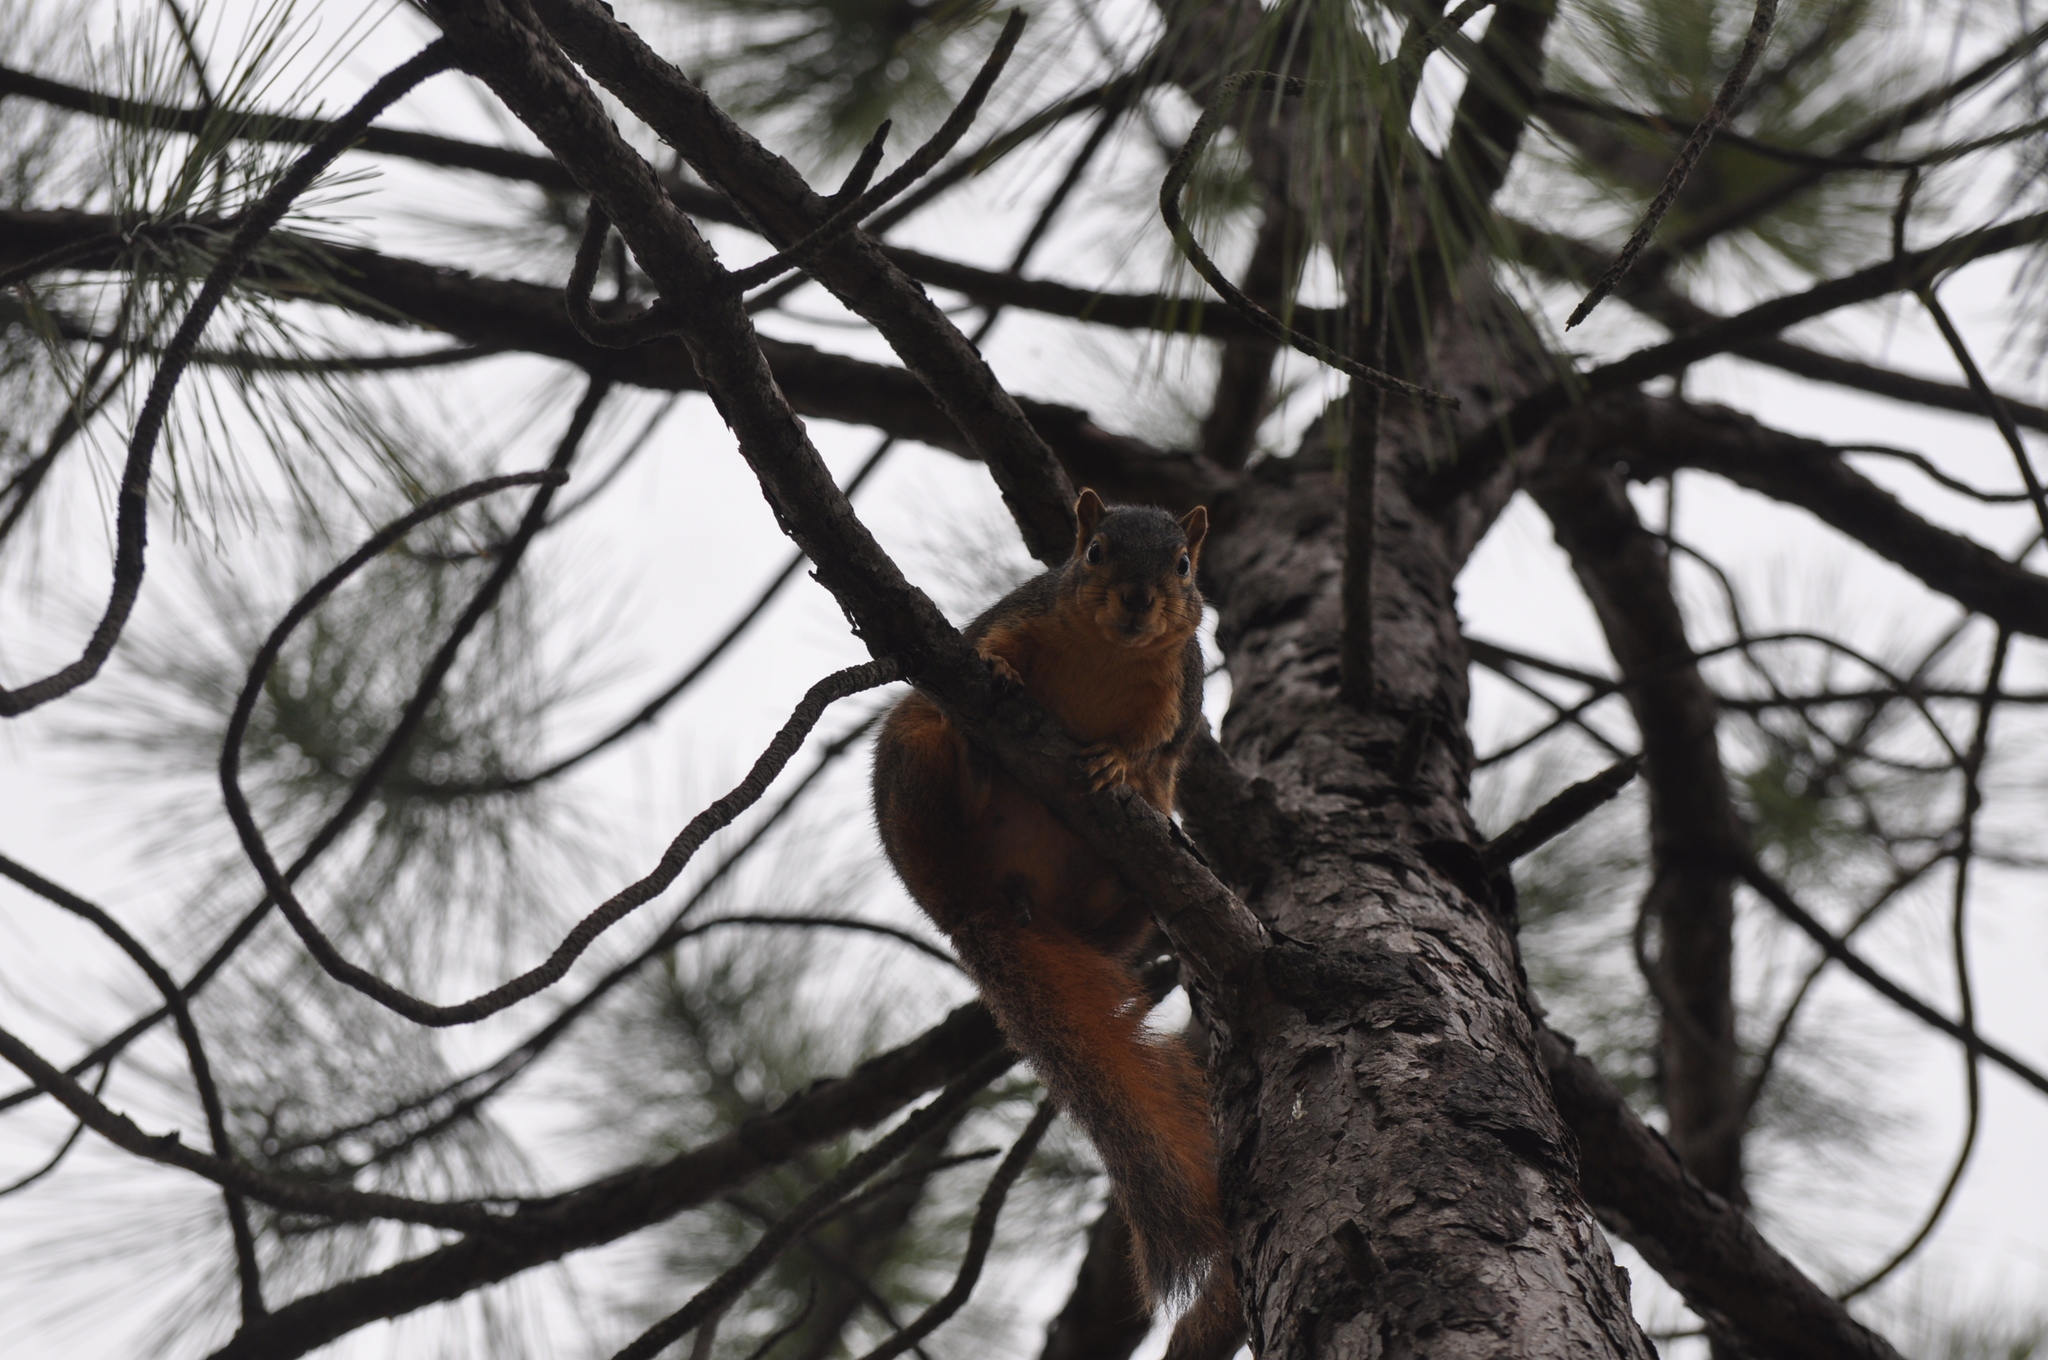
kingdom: Animalia
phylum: Chordata
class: Mammalia
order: Rodentia
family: Sciuridae
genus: Sciurus
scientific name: Sciurus niger
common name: Fox squirrel
